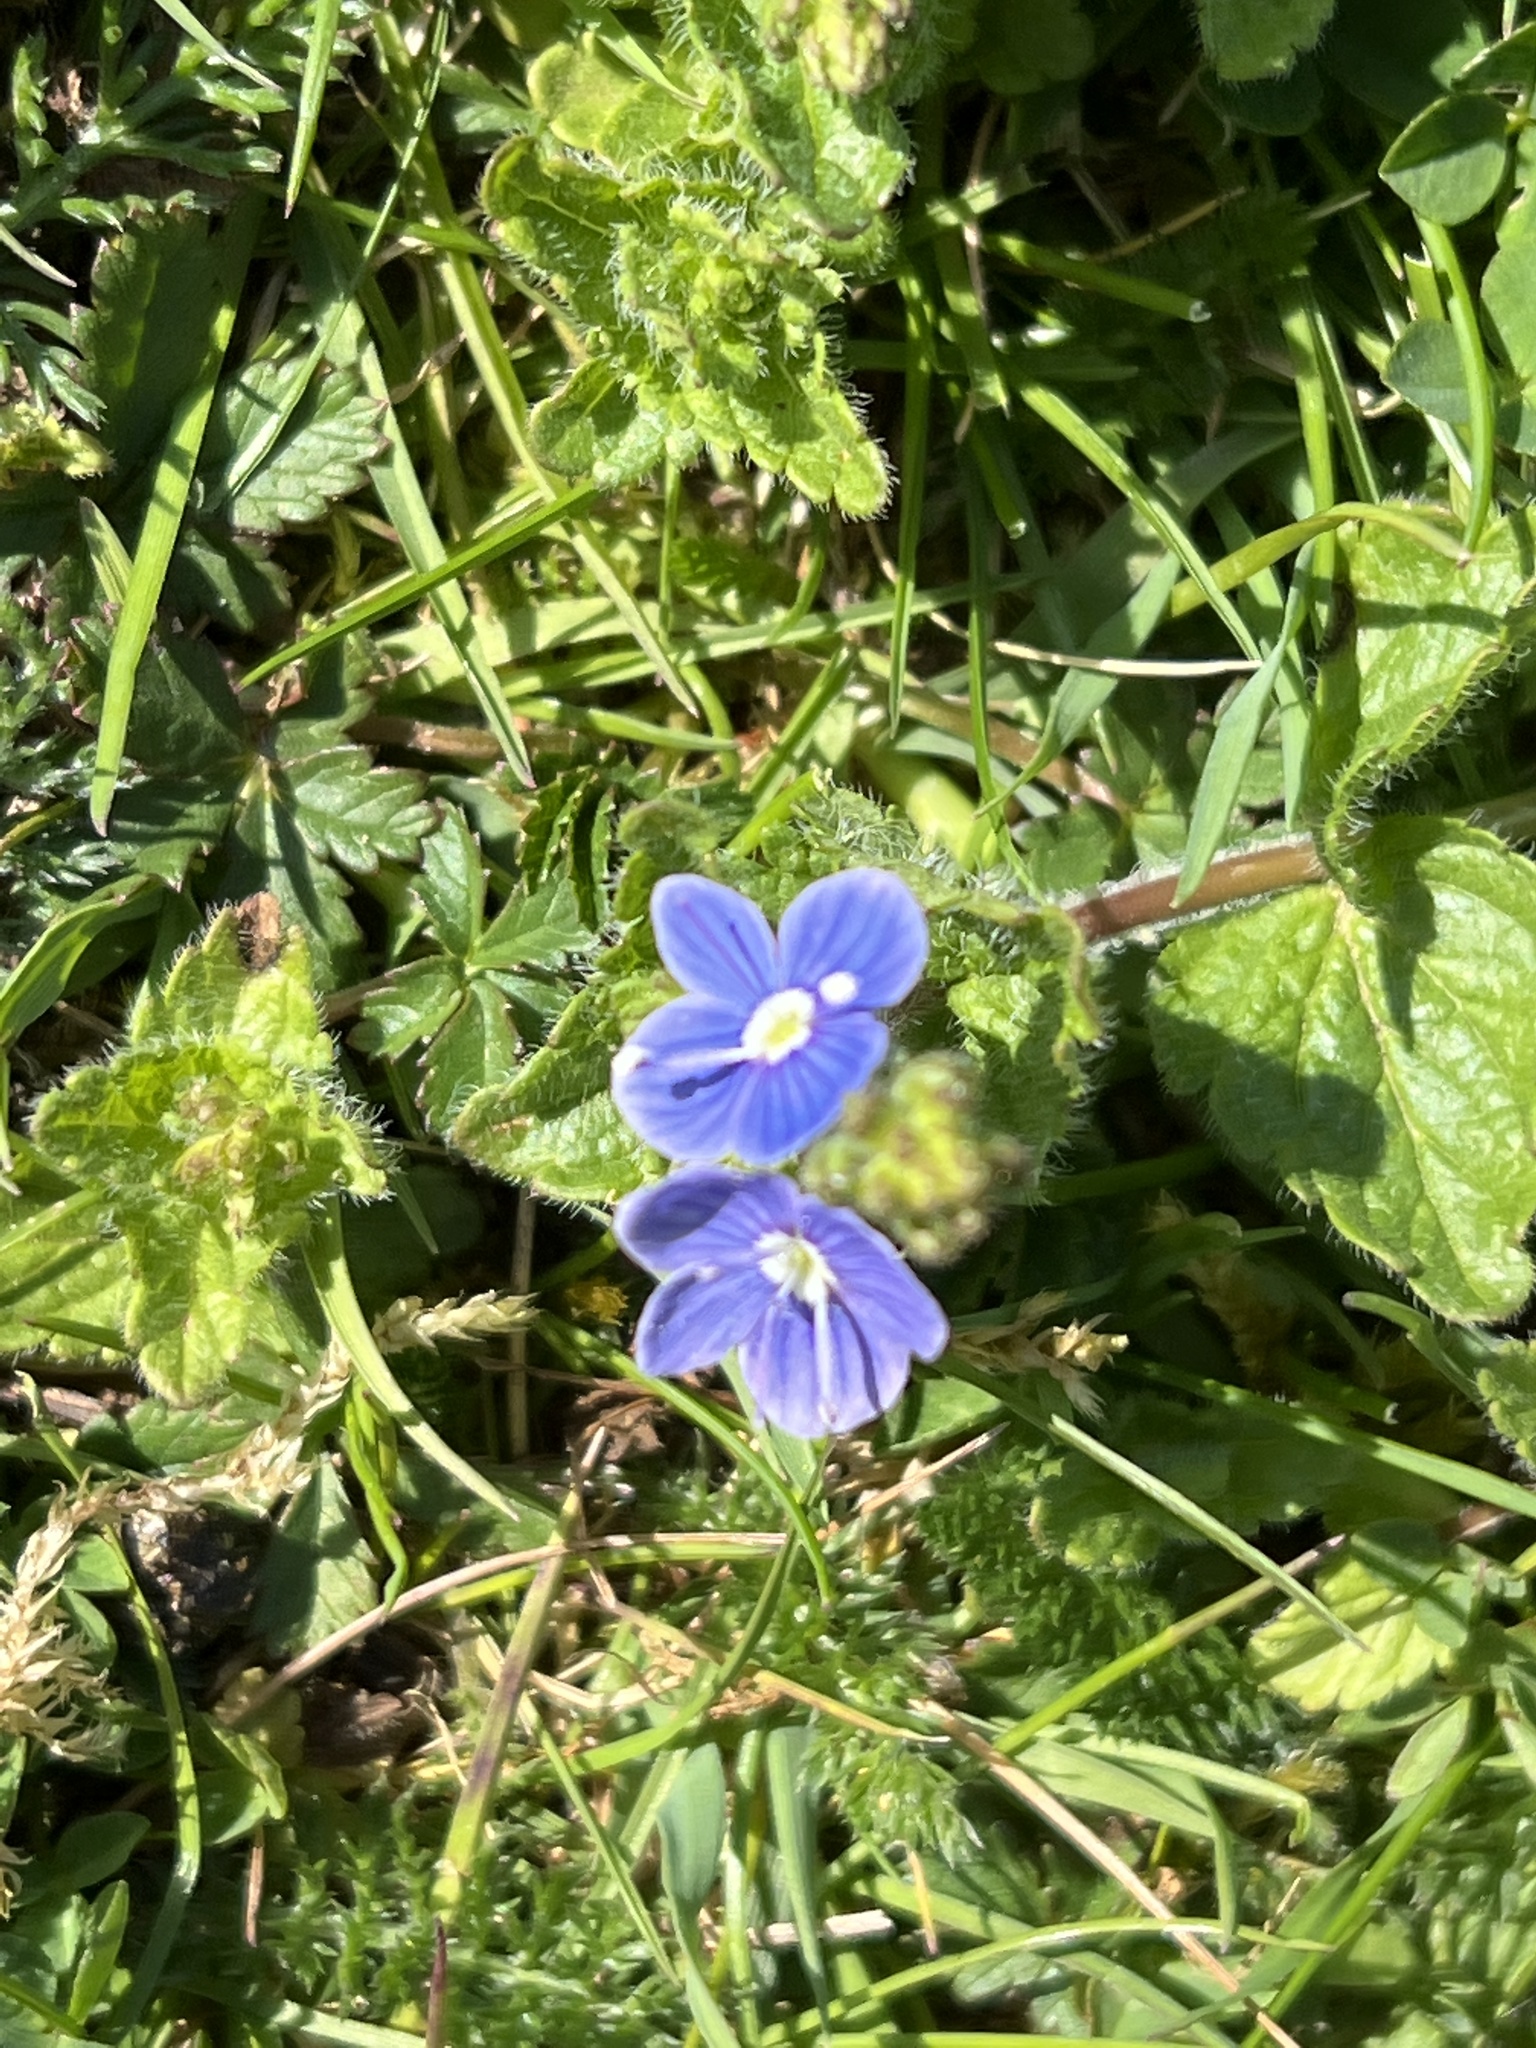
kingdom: Plantae
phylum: Tracheophyta
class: Magnoliopsida
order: Lamiales
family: Plantaginaceae
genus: Veronica
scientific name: Veronica chamaedrys
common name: Germander speedwell
